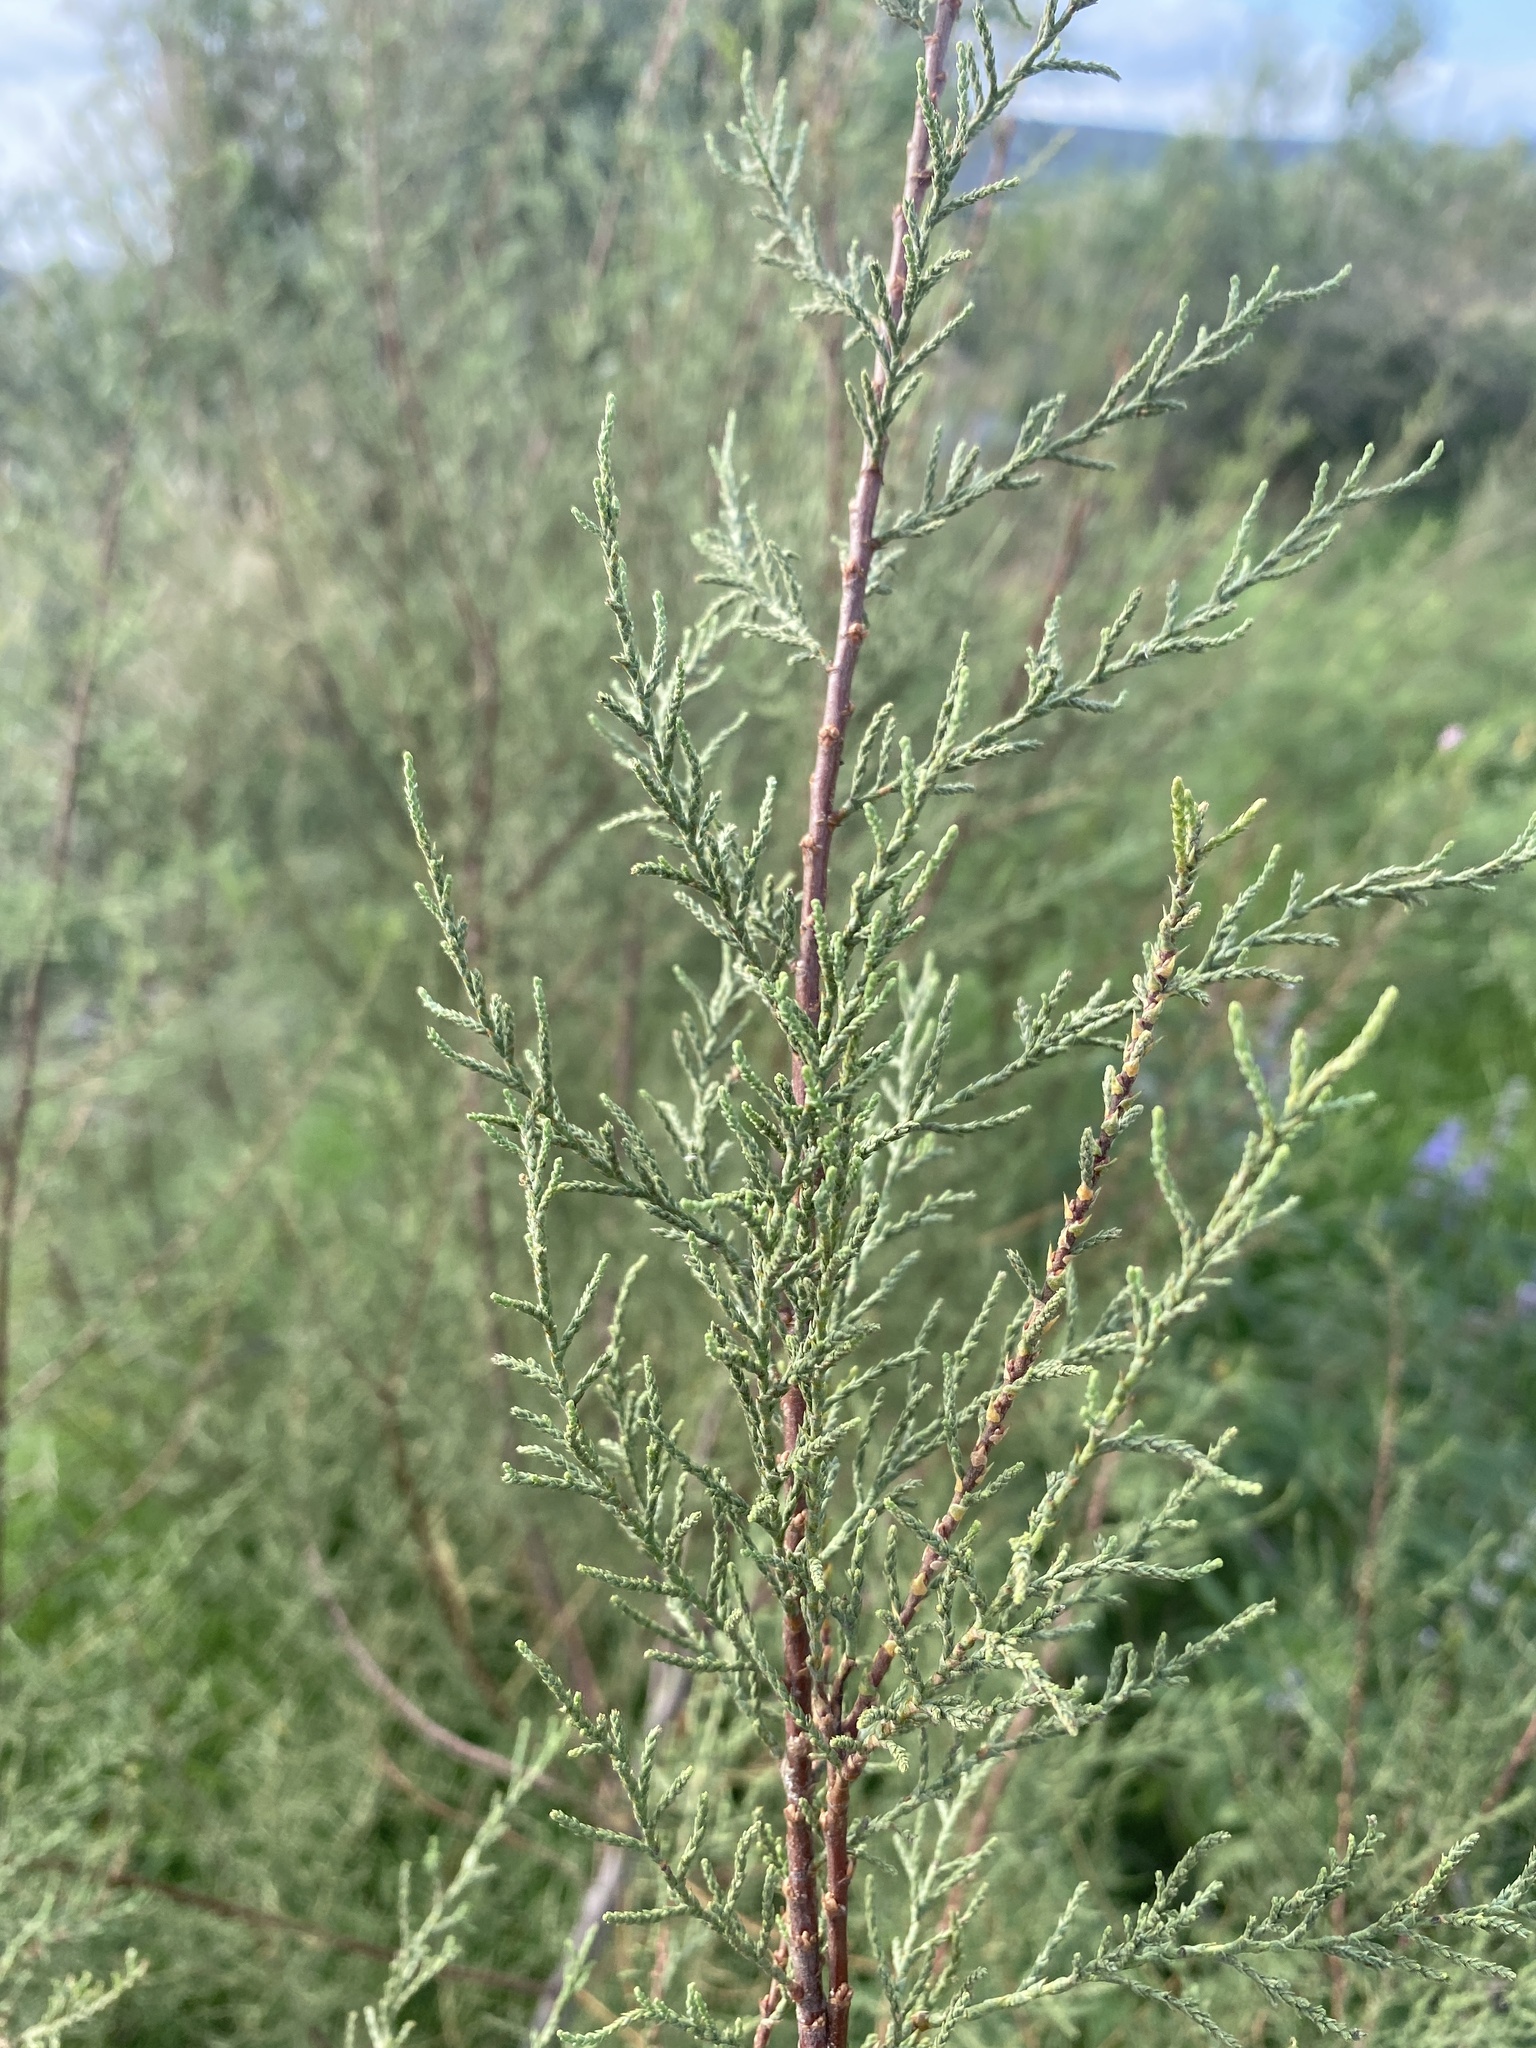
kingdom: Plantae
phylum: Tracheophyta
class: Magnoliopsida
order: Caryophyllales
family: Tamaricaceae
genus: Tamarix
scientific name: Tamarix gallica
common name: Tamarisk
